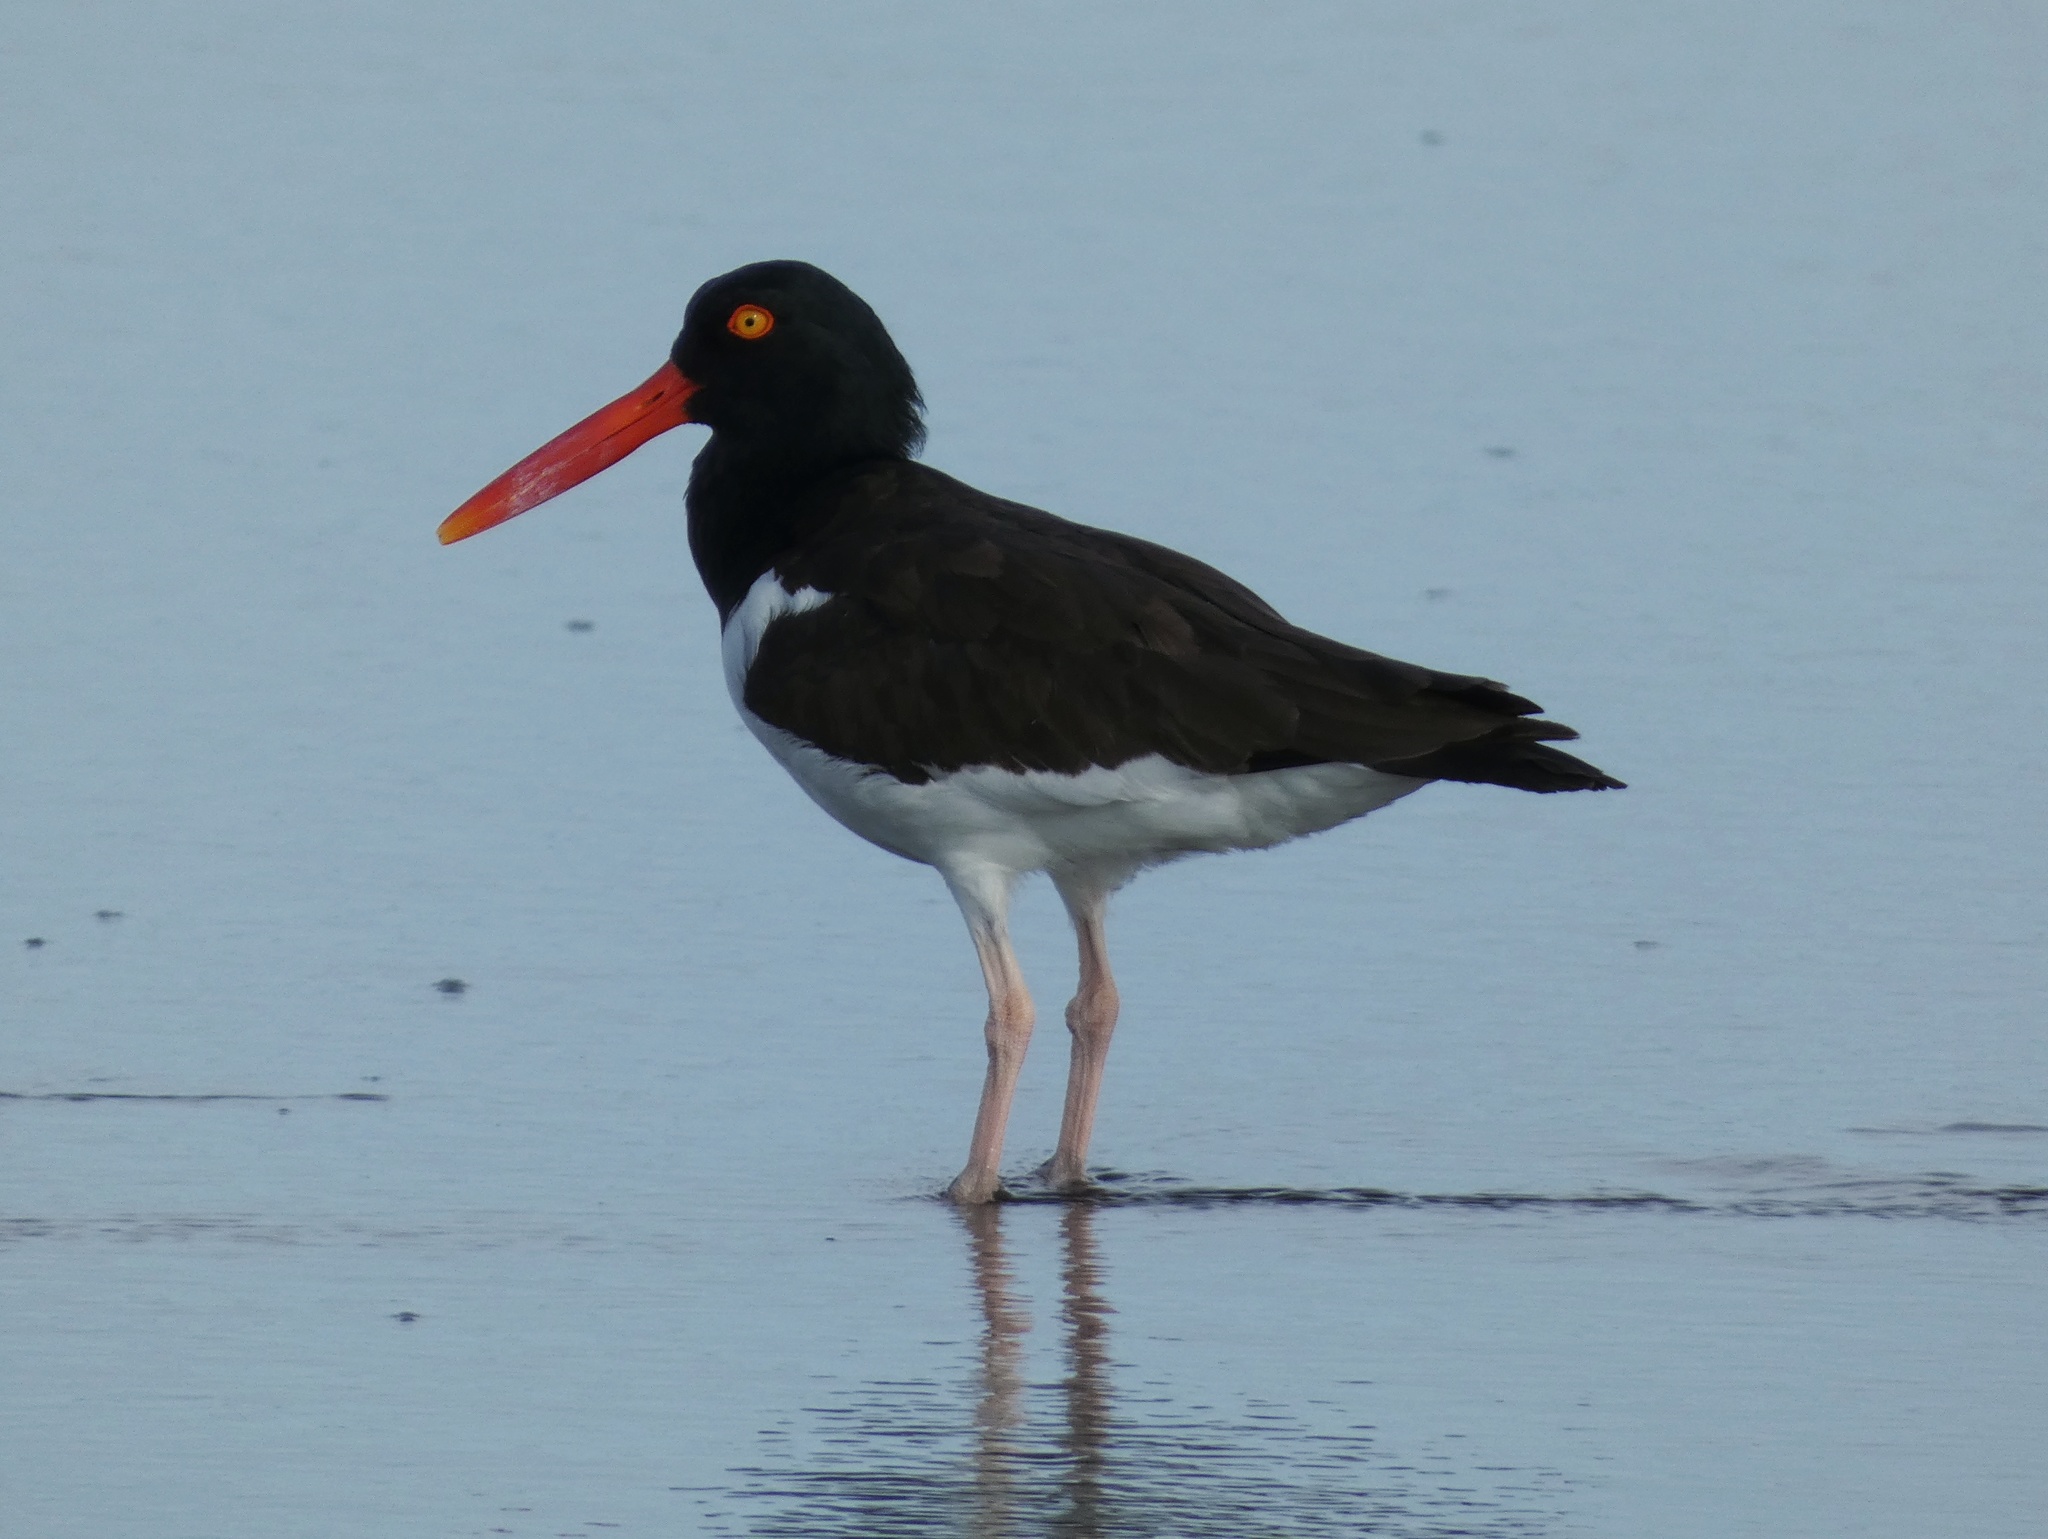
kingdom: Animalia
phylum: Chordata
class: Aves
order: Charadriiformes
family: Haematopodidae
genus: Haematopus
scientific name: Haematopus palliatus
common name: American oystercatcher
